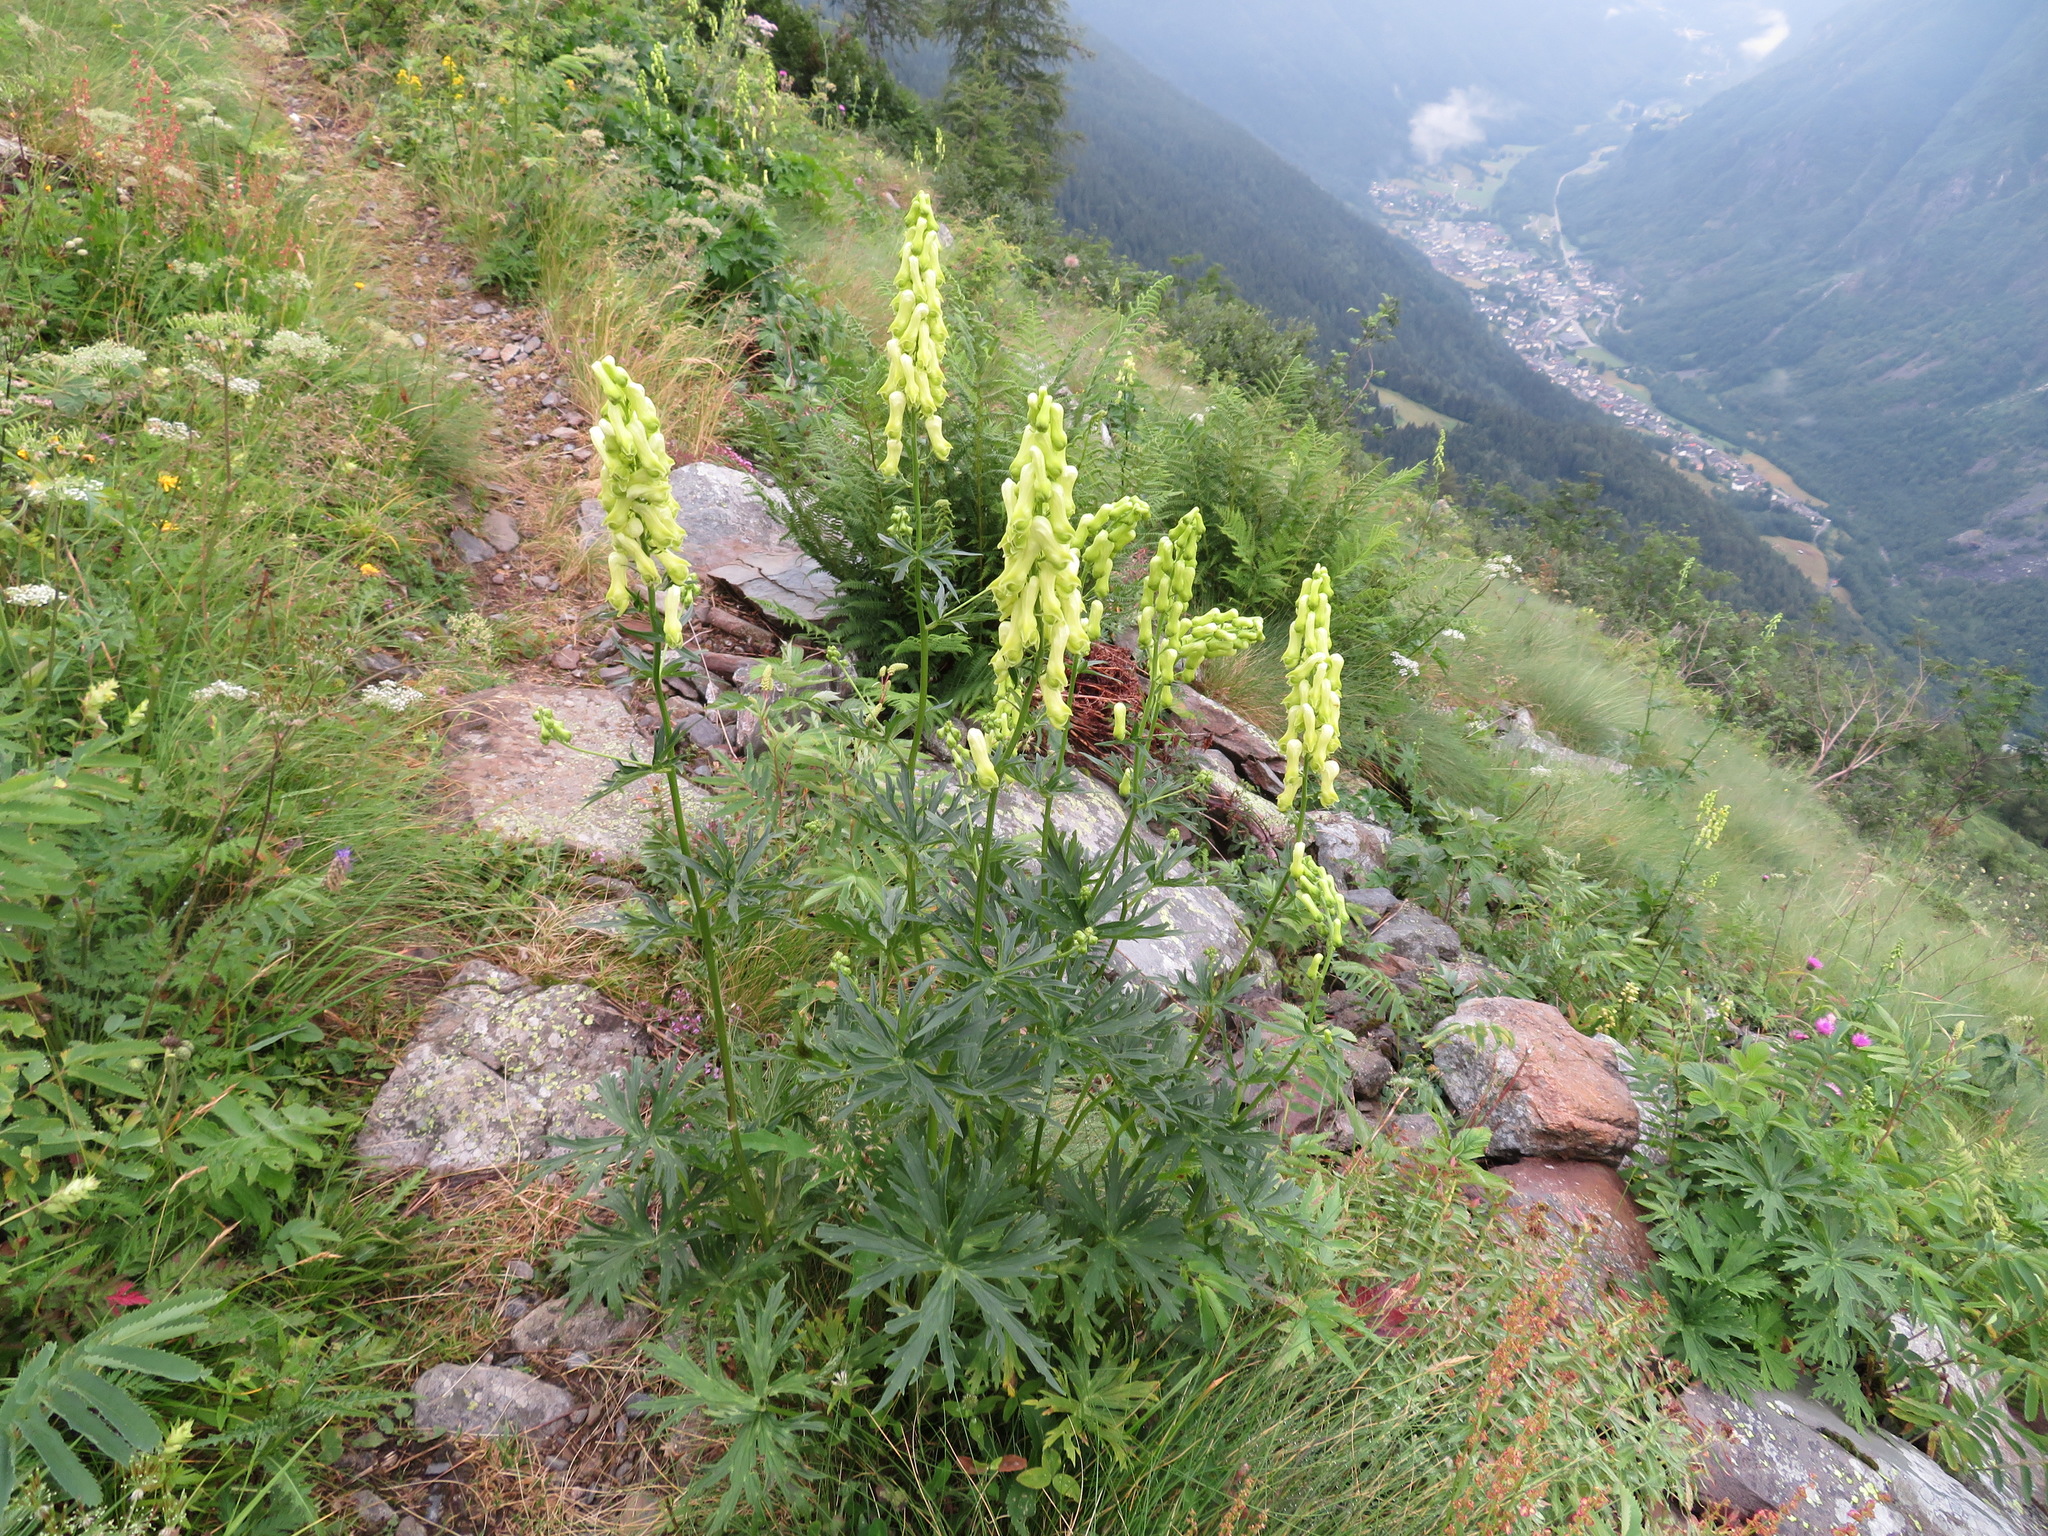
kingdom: Plantae
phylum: Tracheophyta
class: Magnoliopsida
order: Ranunculales
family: Ranunculaceae
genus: Aconitum
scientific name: Aconitum lycoctonum
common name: Wolf's-bane
